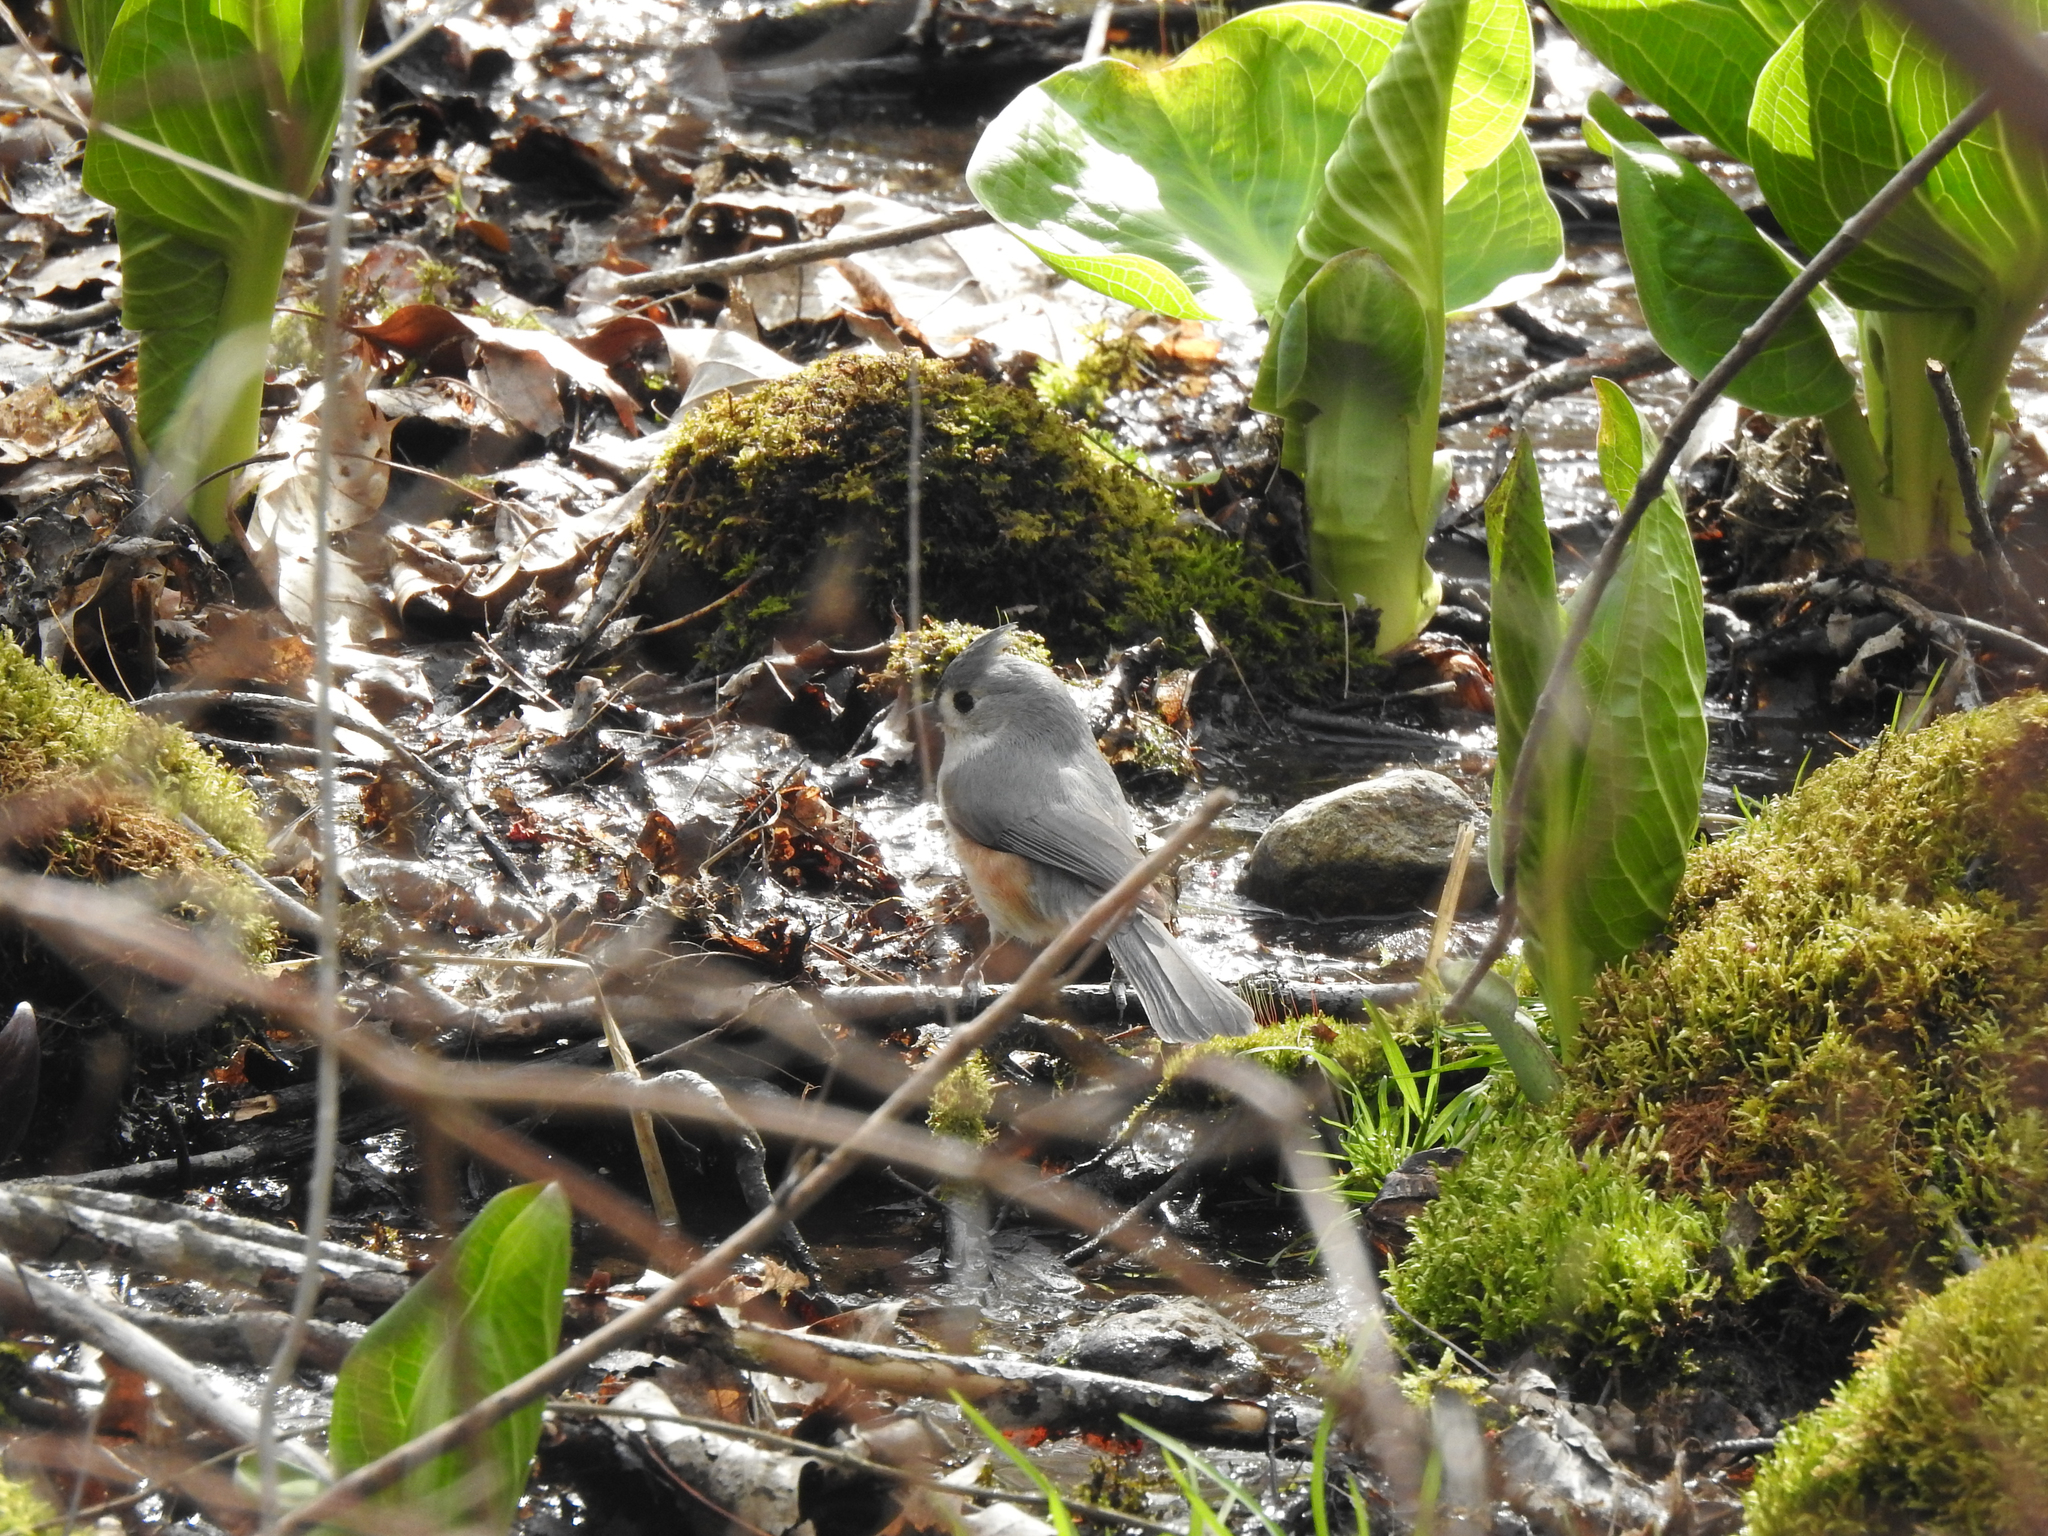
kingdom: Animalia
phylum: Chordata
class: Aves
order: Passeriformes
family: Paridae
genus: Baeolophus
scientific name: Baeolophus bicolor
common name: Tufted titmouse
